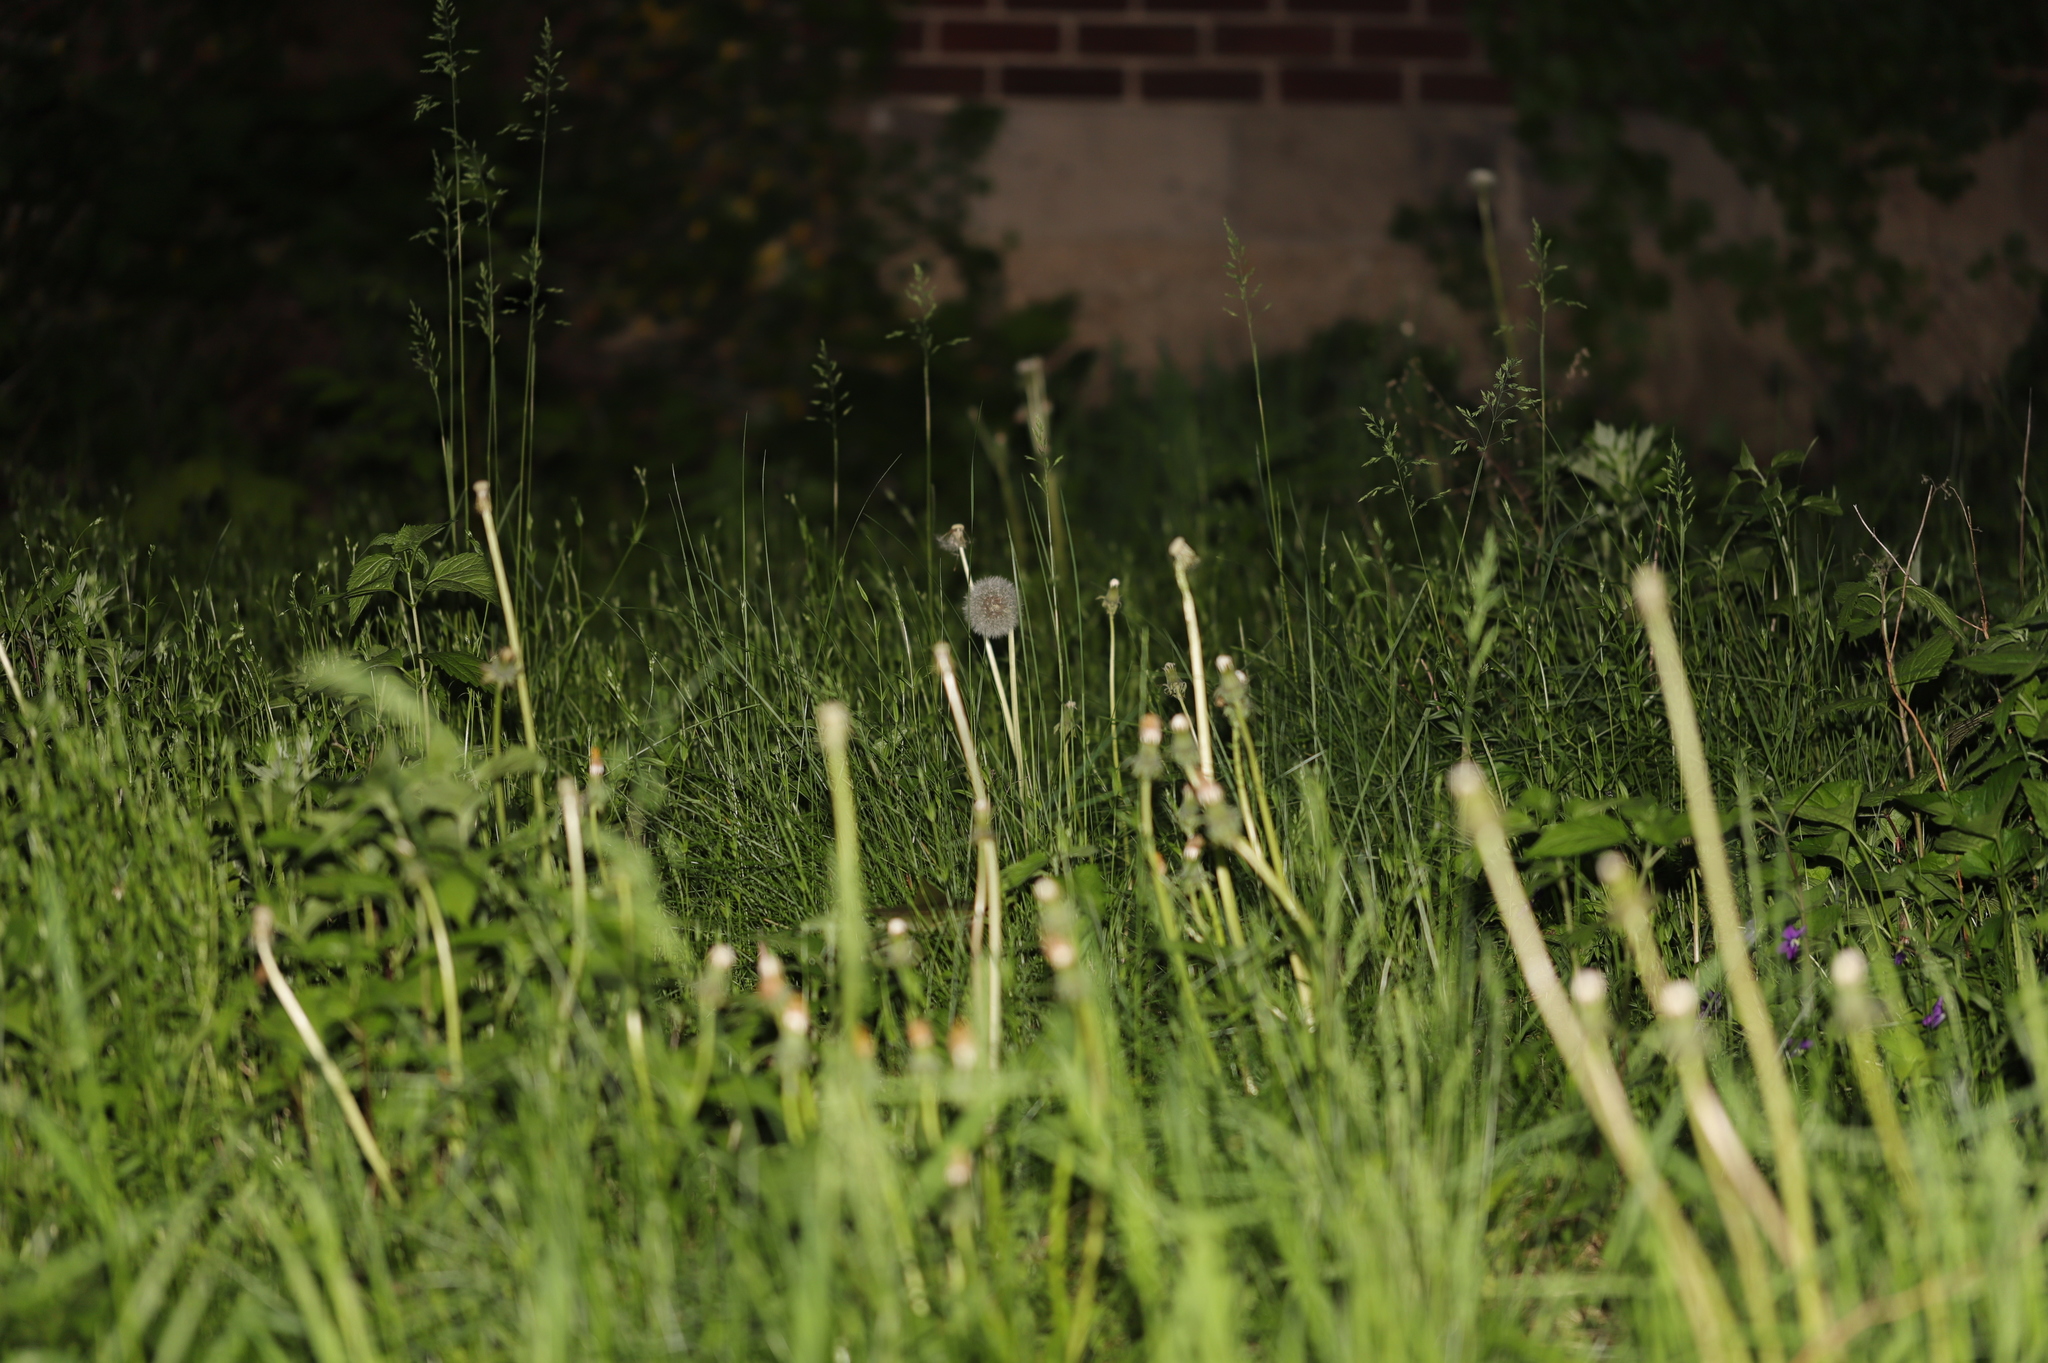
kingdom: Plantae
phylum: Tracheophyta
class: Magnoliopsida
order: Asterales
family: Asteraceae
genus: Taraxacum
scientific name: Taraxacum officinale
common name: Common dandelion
